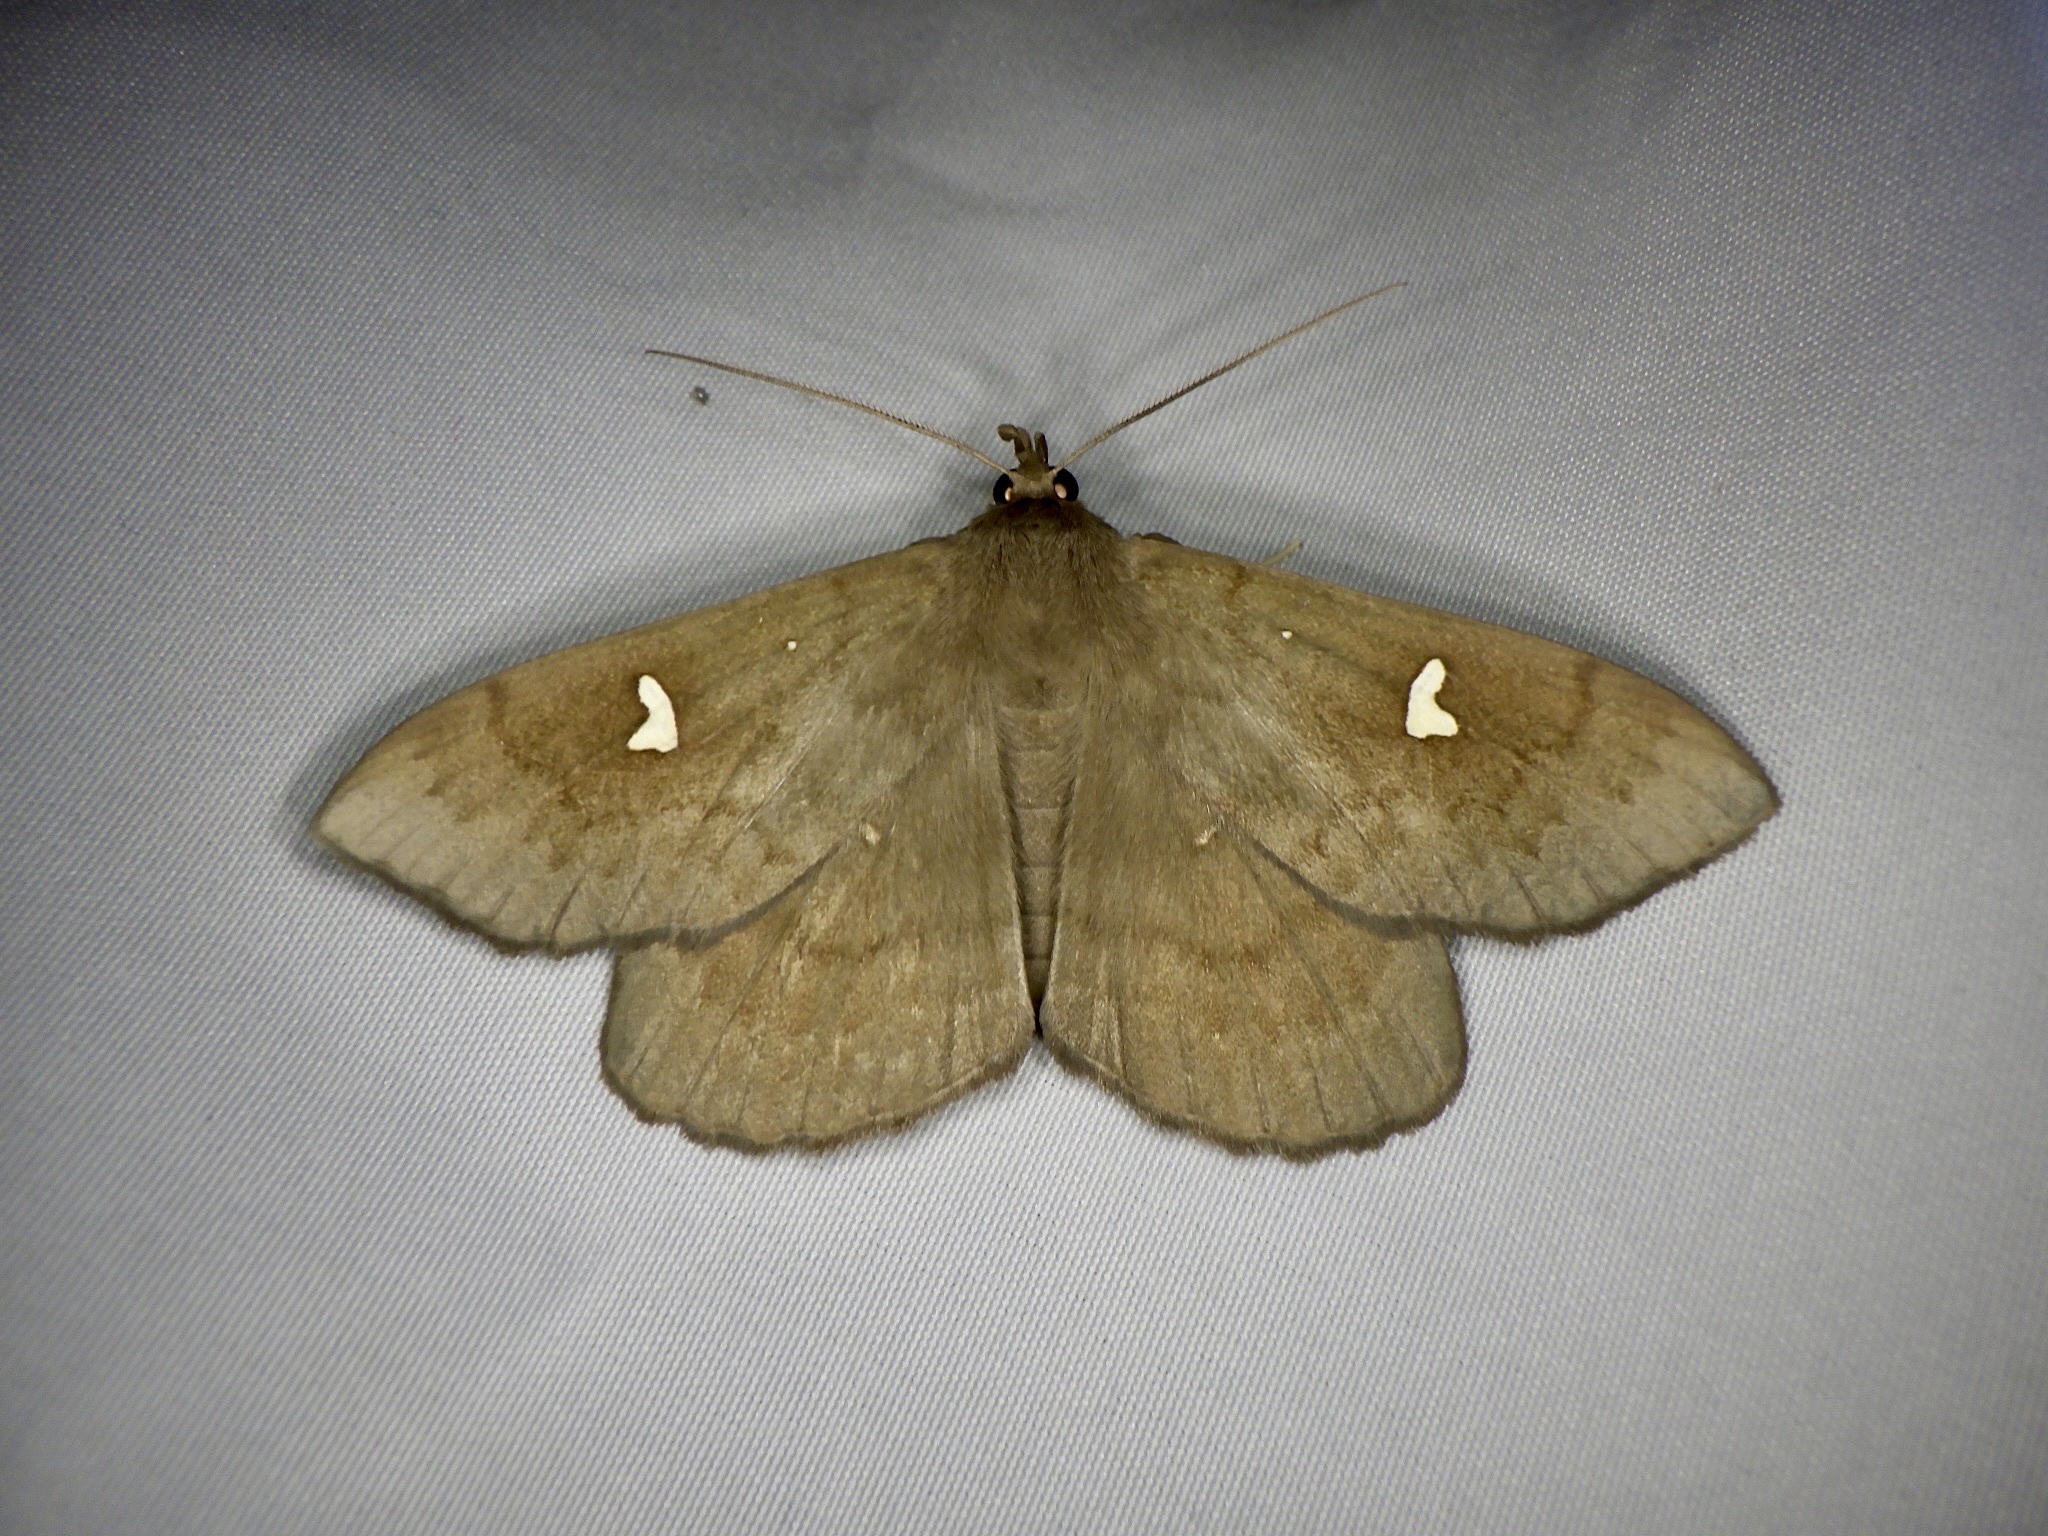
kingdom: Animalia
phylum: Arthropoda
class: Insecta
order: Lepidoptera
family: Erebidae
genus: Edessena
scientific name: Edessena hamada
